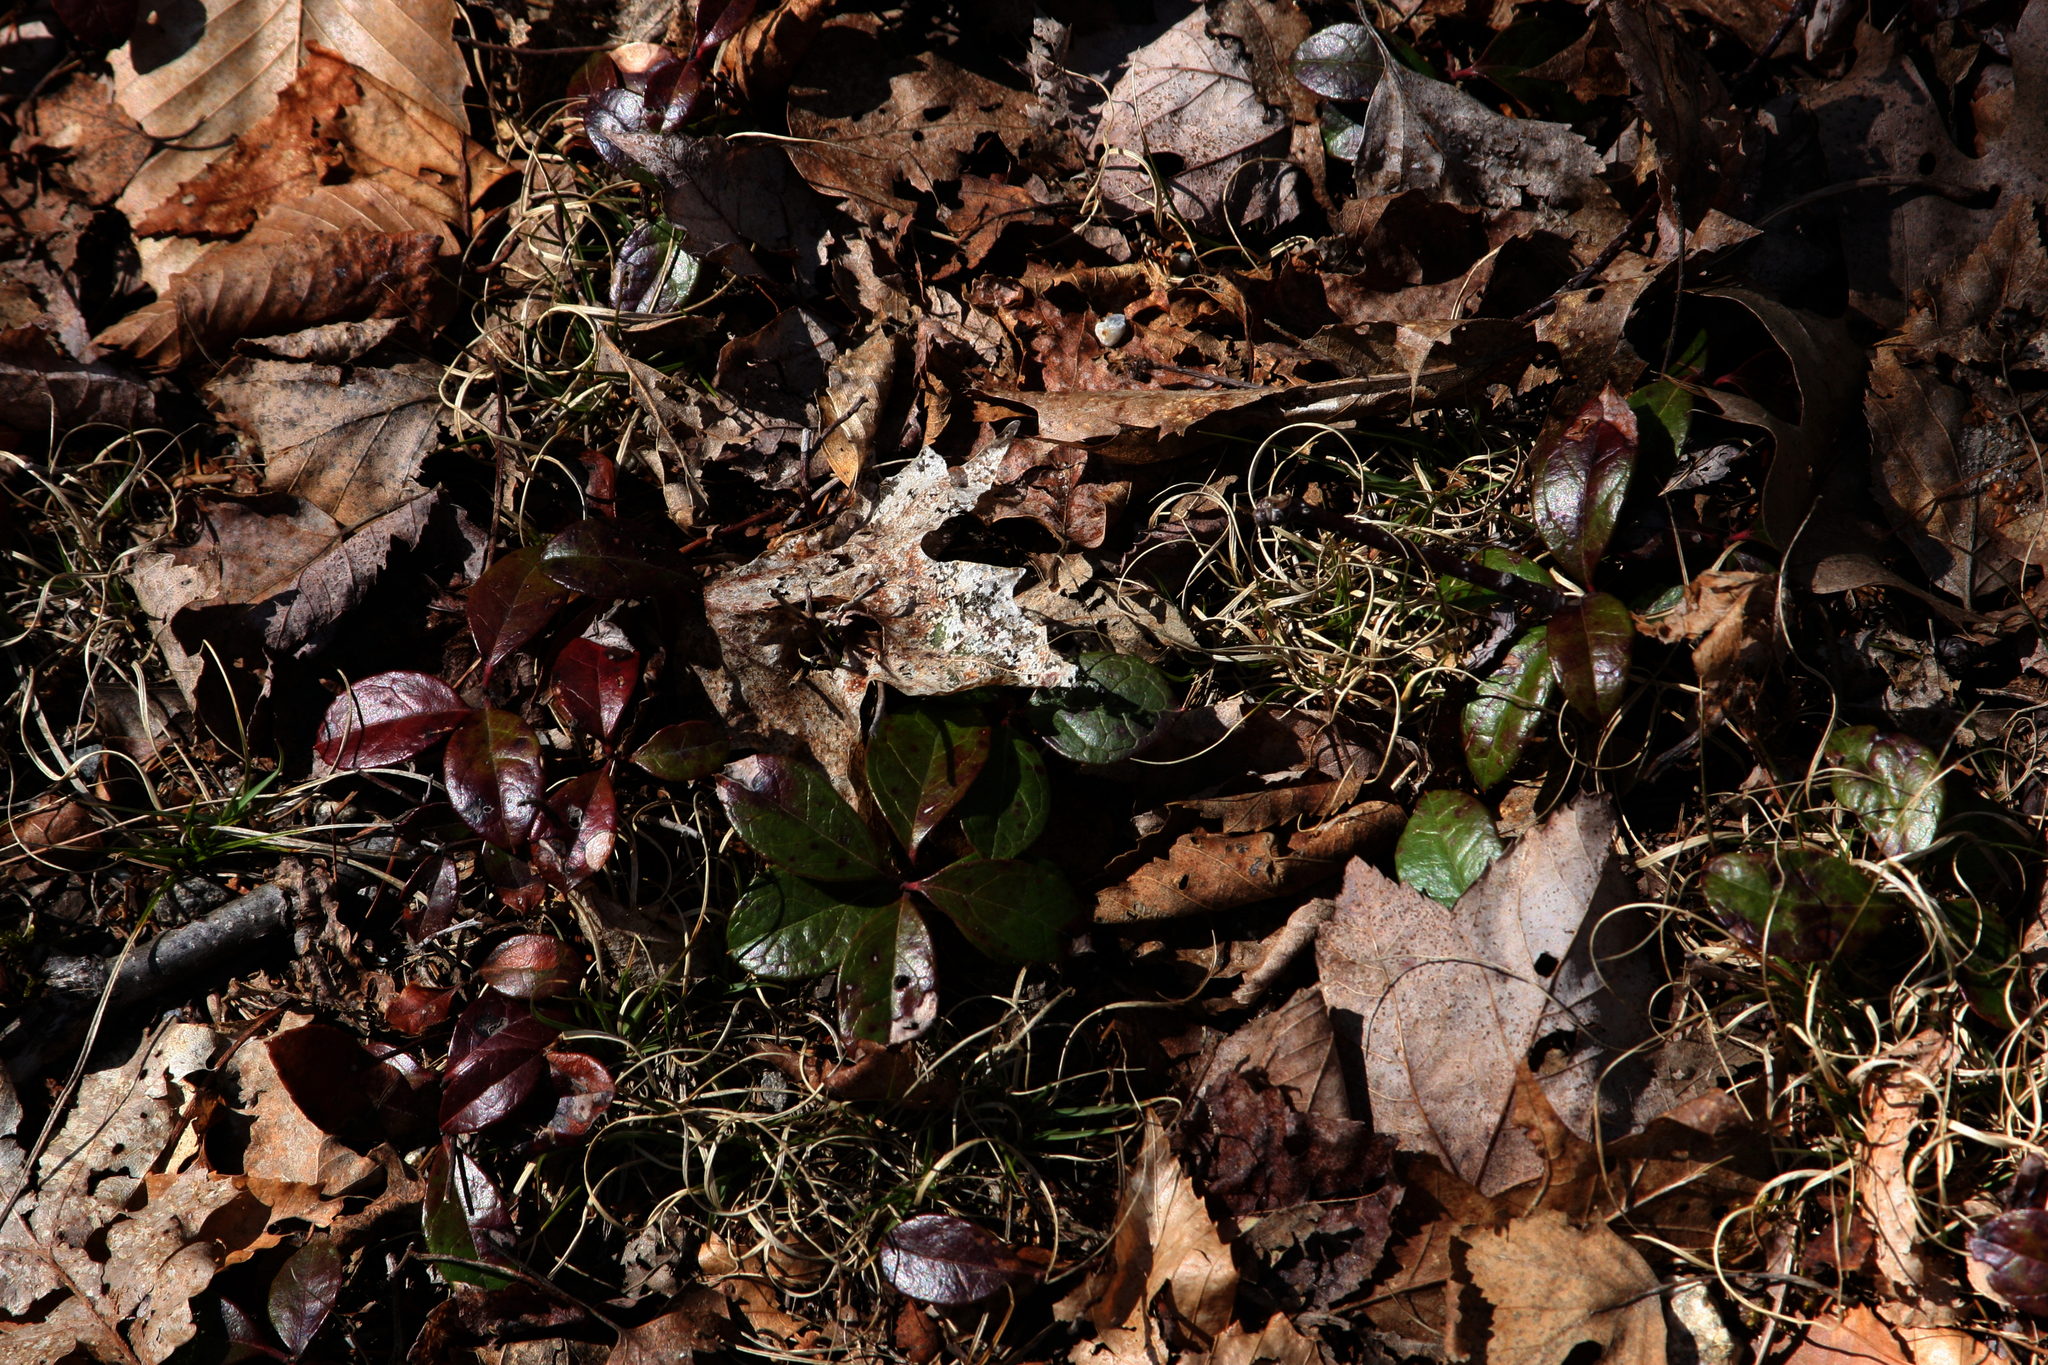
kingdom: Plantae
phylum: Tracheophyta
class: Magnoliopsida
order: Ericales
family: Ericaceae
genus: Gaultheria
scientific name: Gaultheria procumbens
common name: Checkerberry
